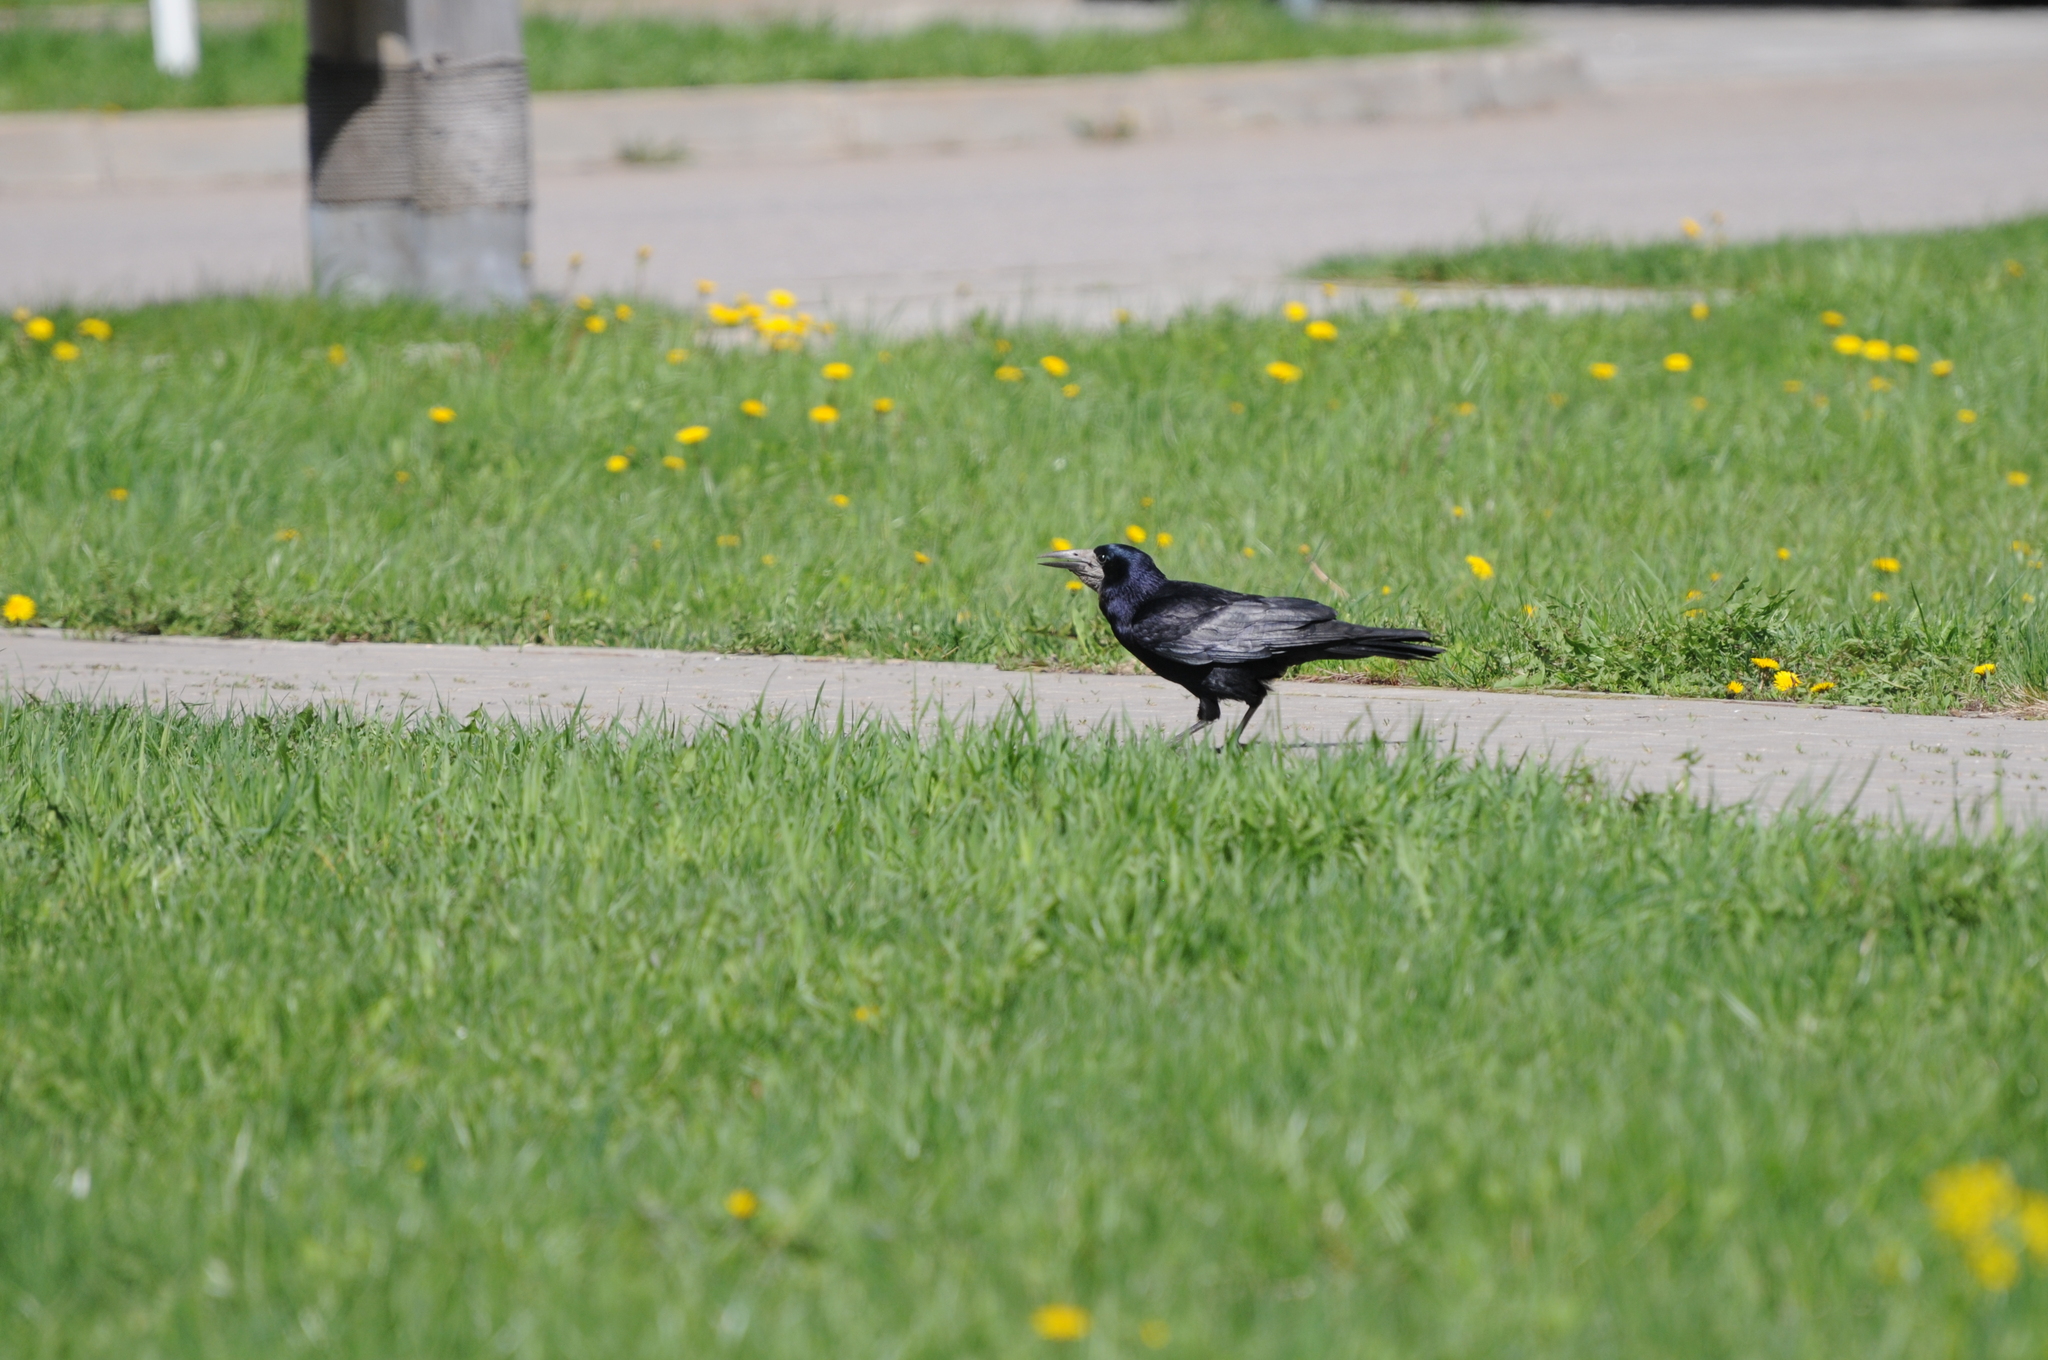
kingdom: Animalia
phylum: Chordata
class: Aves
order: Passeriformes
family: Corvidae
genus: Corvus
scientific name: Corvus frugilegus
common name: Rook
